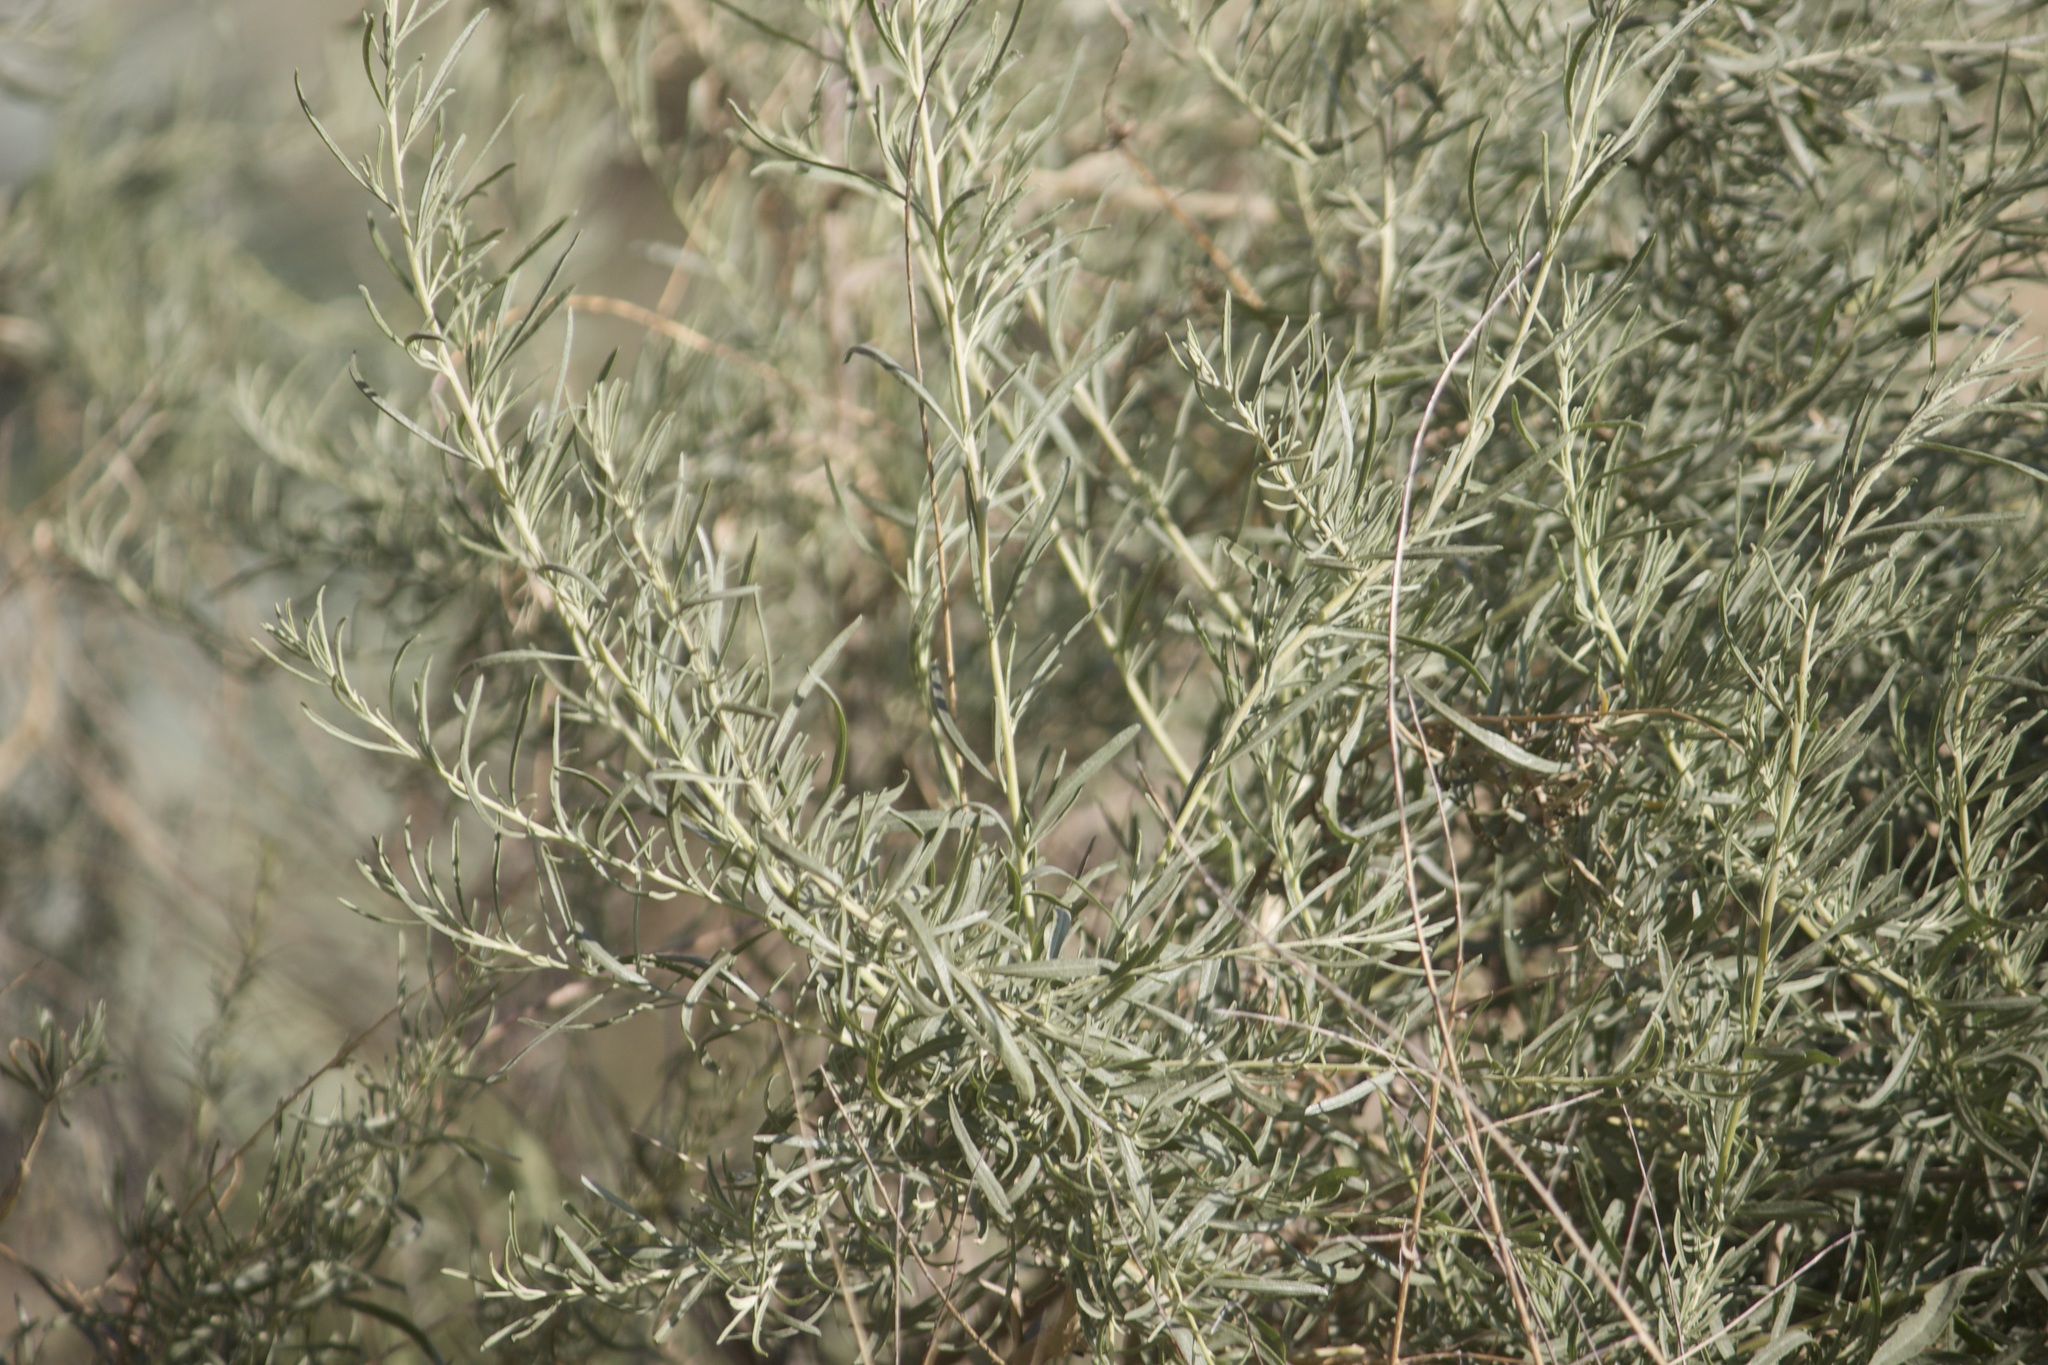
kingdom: Plantae
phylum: Tracheophyta
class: Magnoliopsida
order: Caryophyllales
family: Amaranthaceae
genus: Atriplex
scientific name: Atriplex canescens
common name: Four-wing saltbush
